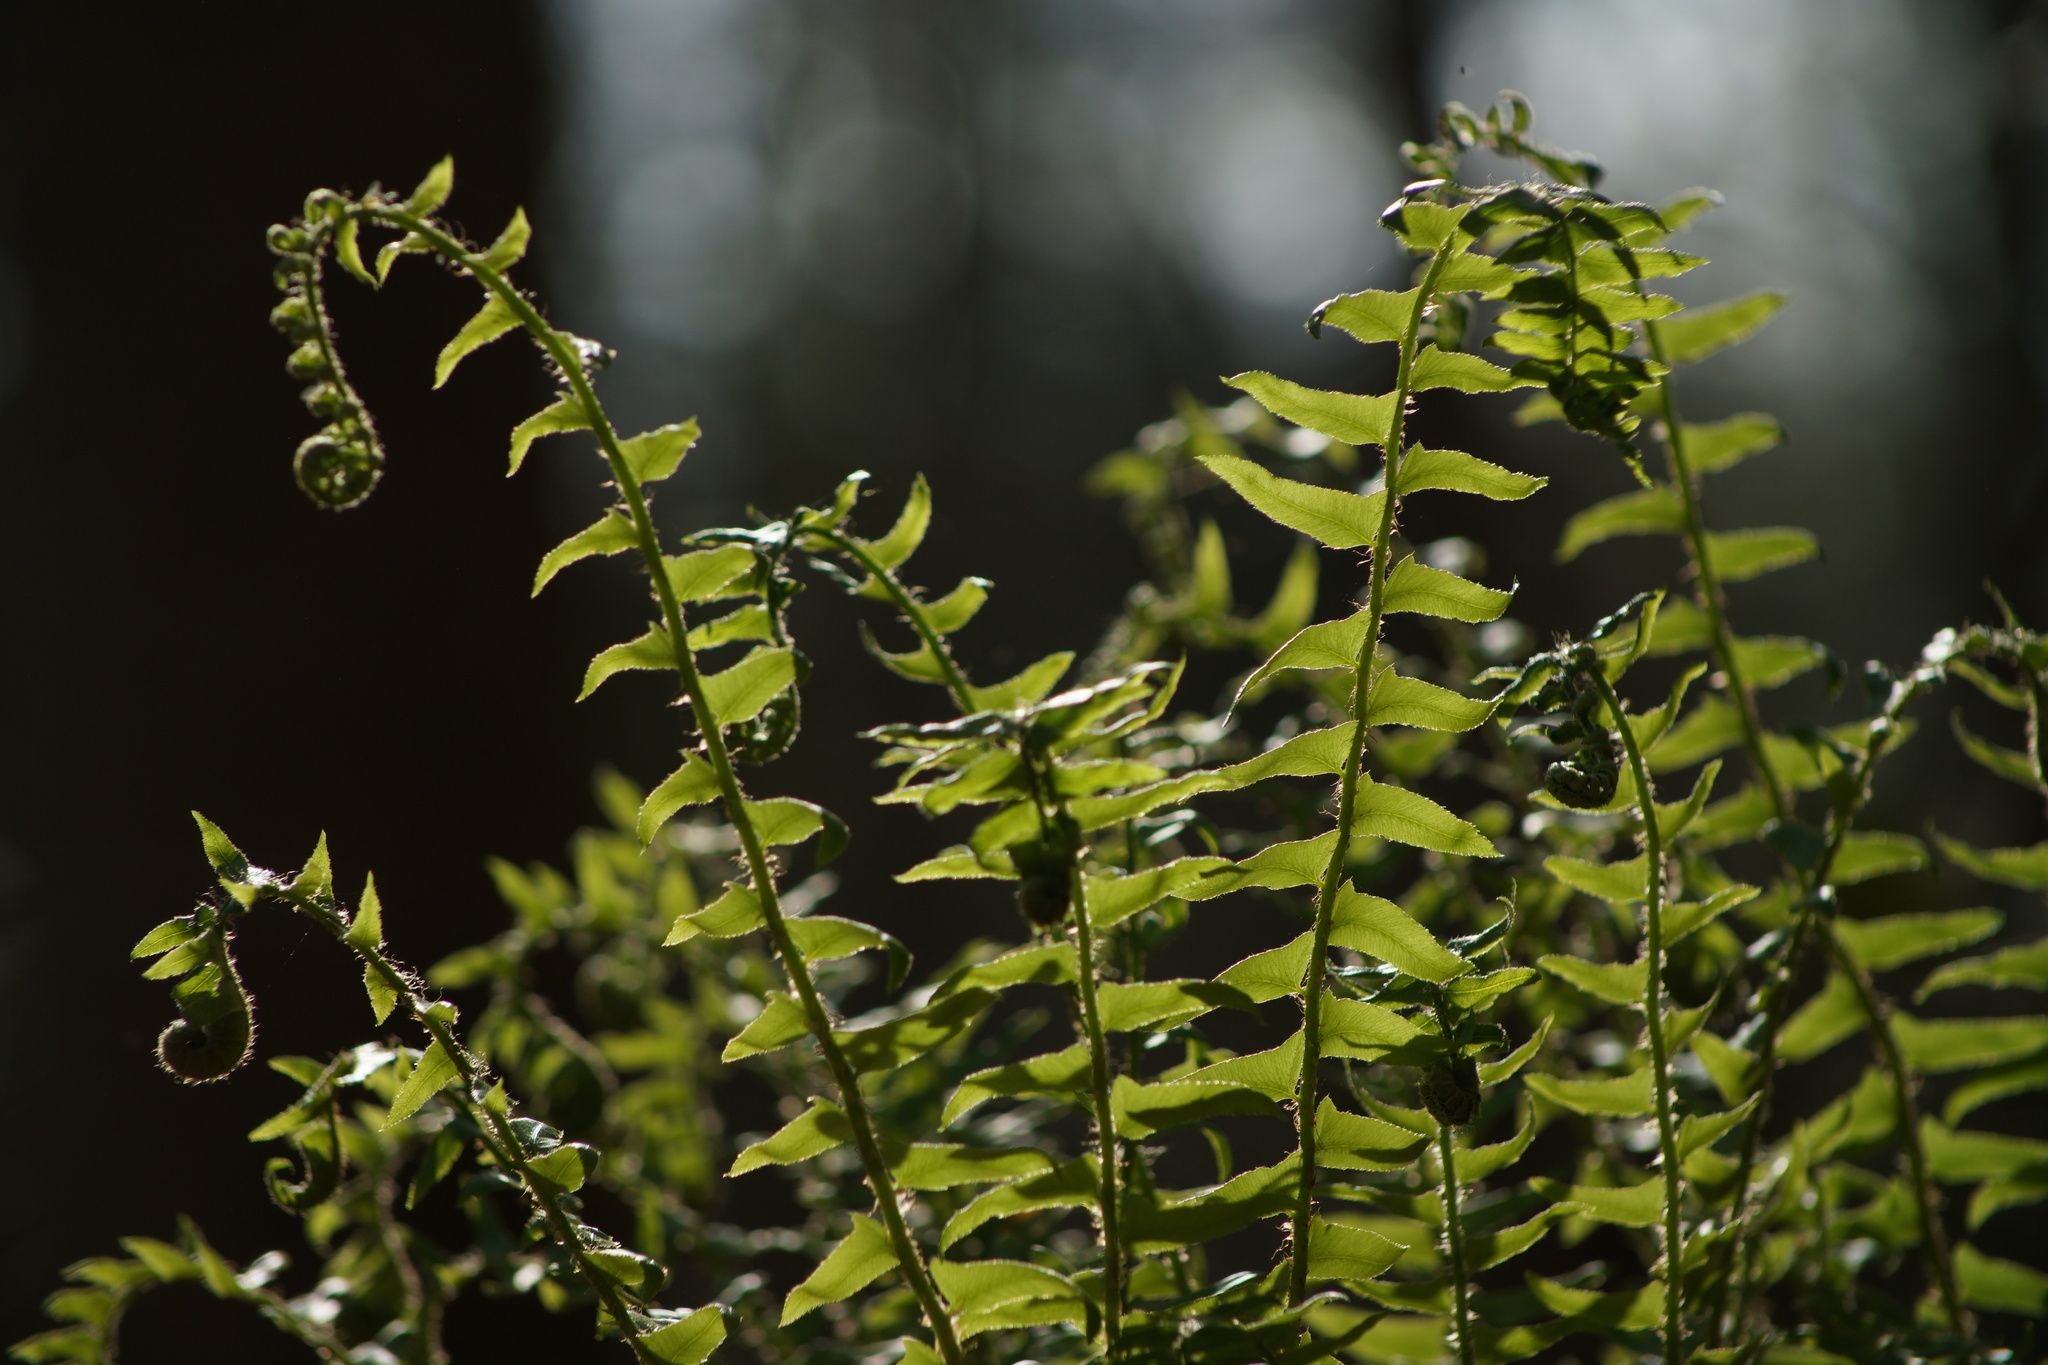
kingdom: Plantae
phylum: Tracheophyta
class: Polypodiopsida
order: Polypodiales
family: Dryopteridaceae
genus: Polystichum
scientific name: Polystichum acrostichoides
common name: Christmas fern
